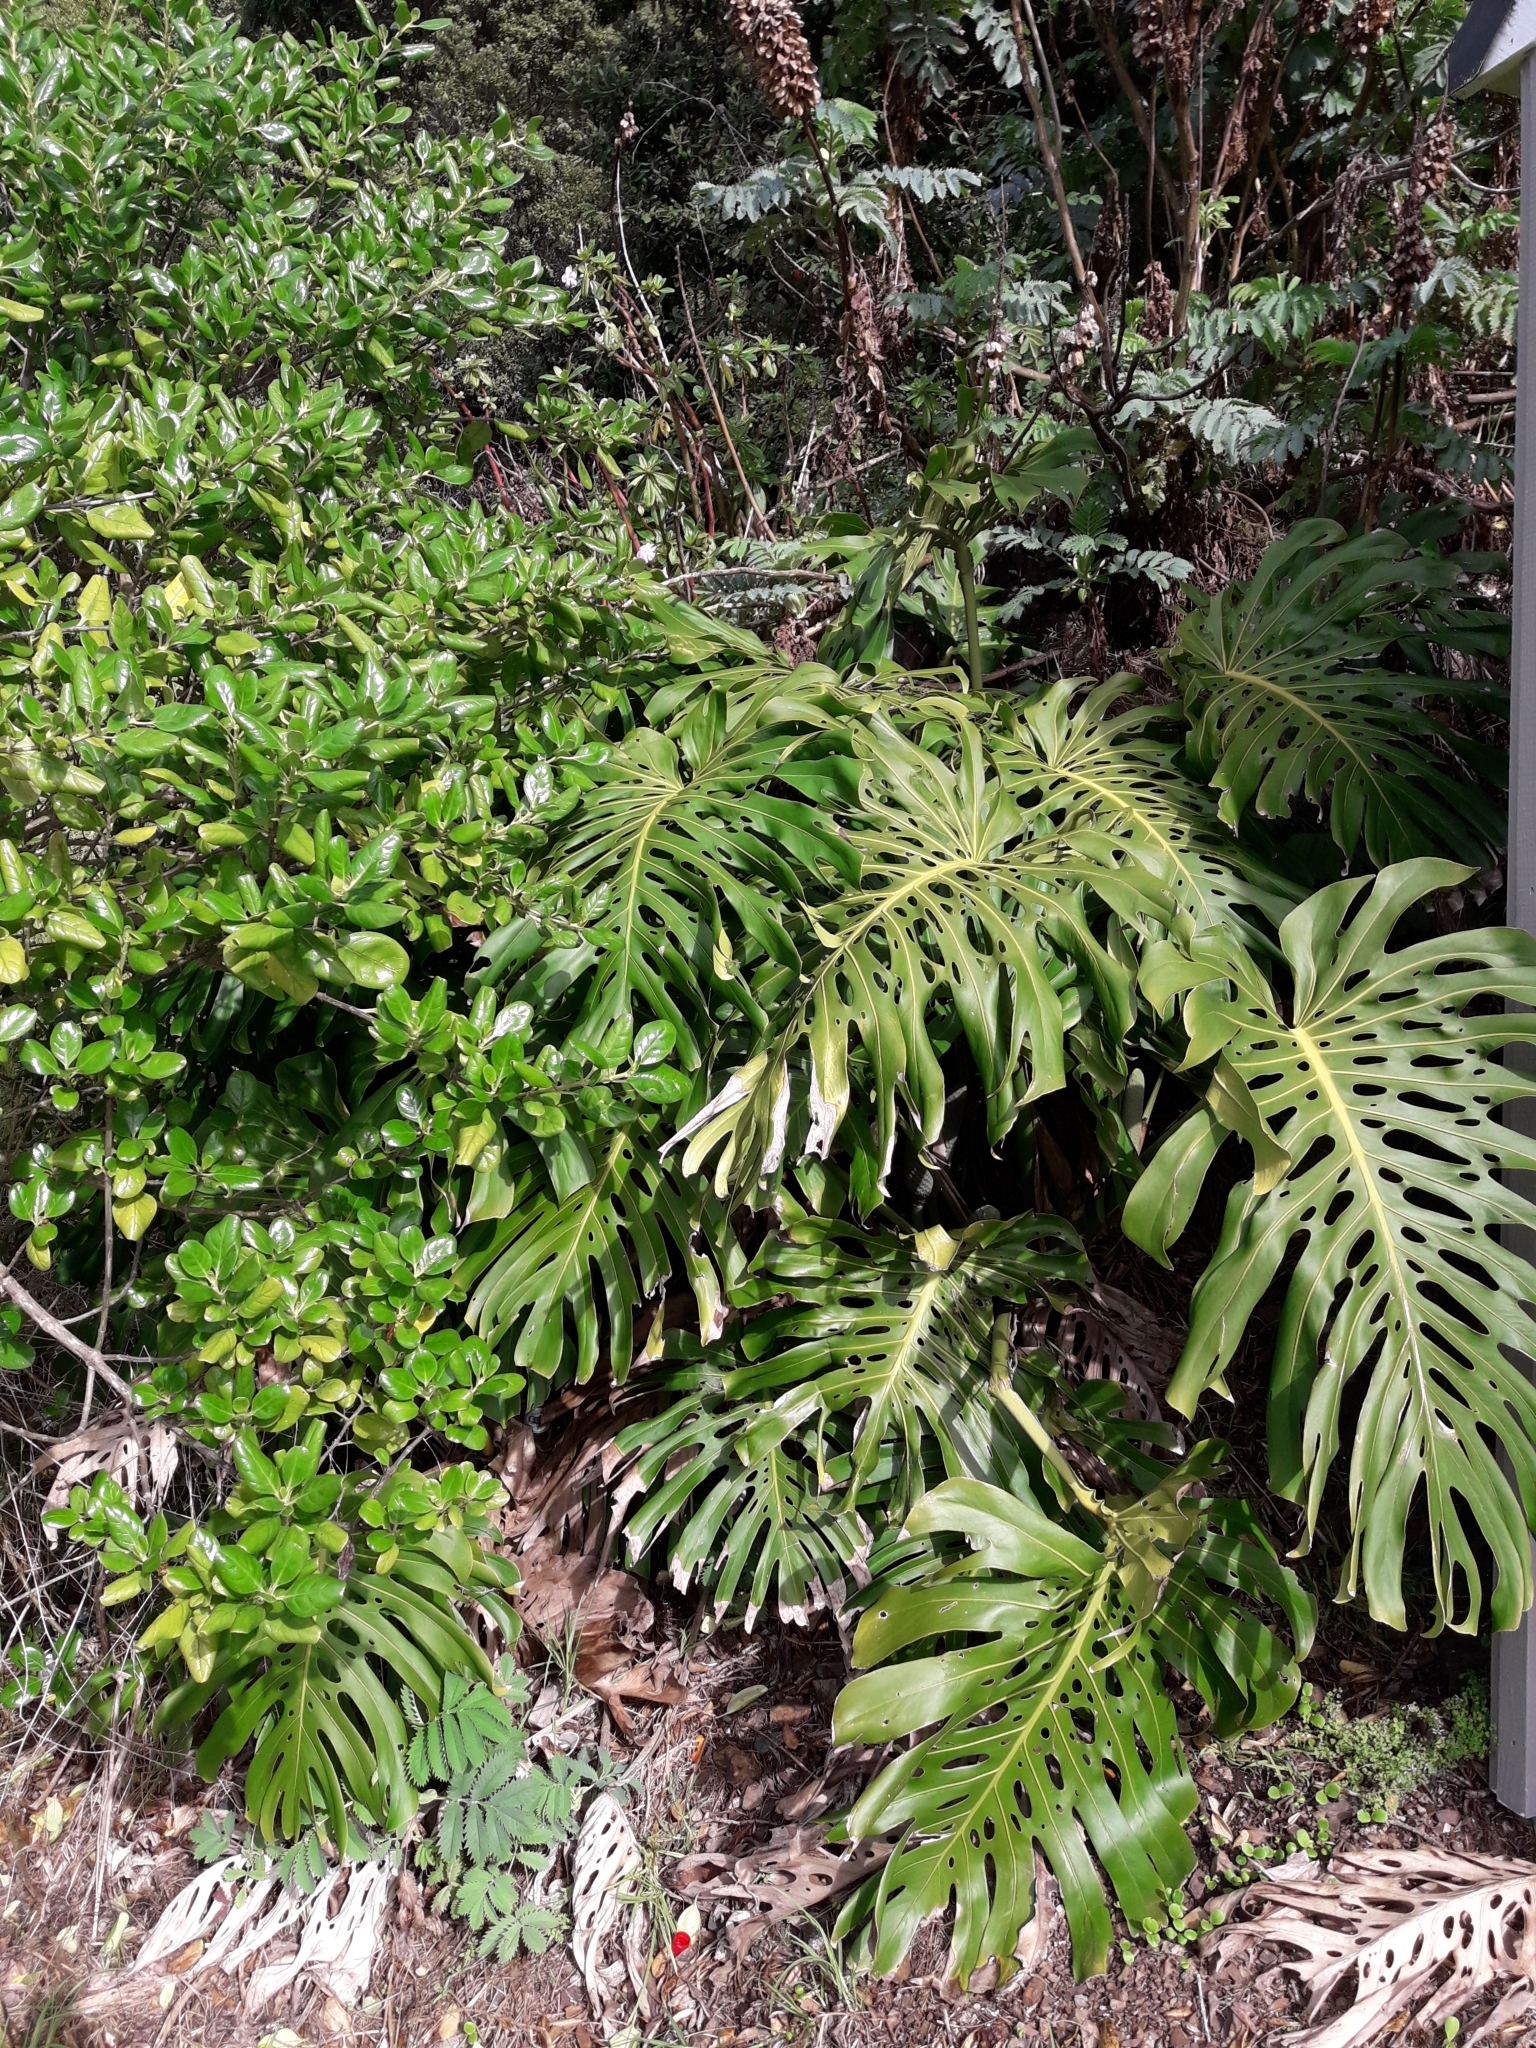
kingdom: Plantae
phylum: Tracheophyta
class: Liliopsida
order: Alismatales
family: Araceae
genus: Monstera
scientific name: Monstera deliciosa
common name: Cut-leaf-philodendron
